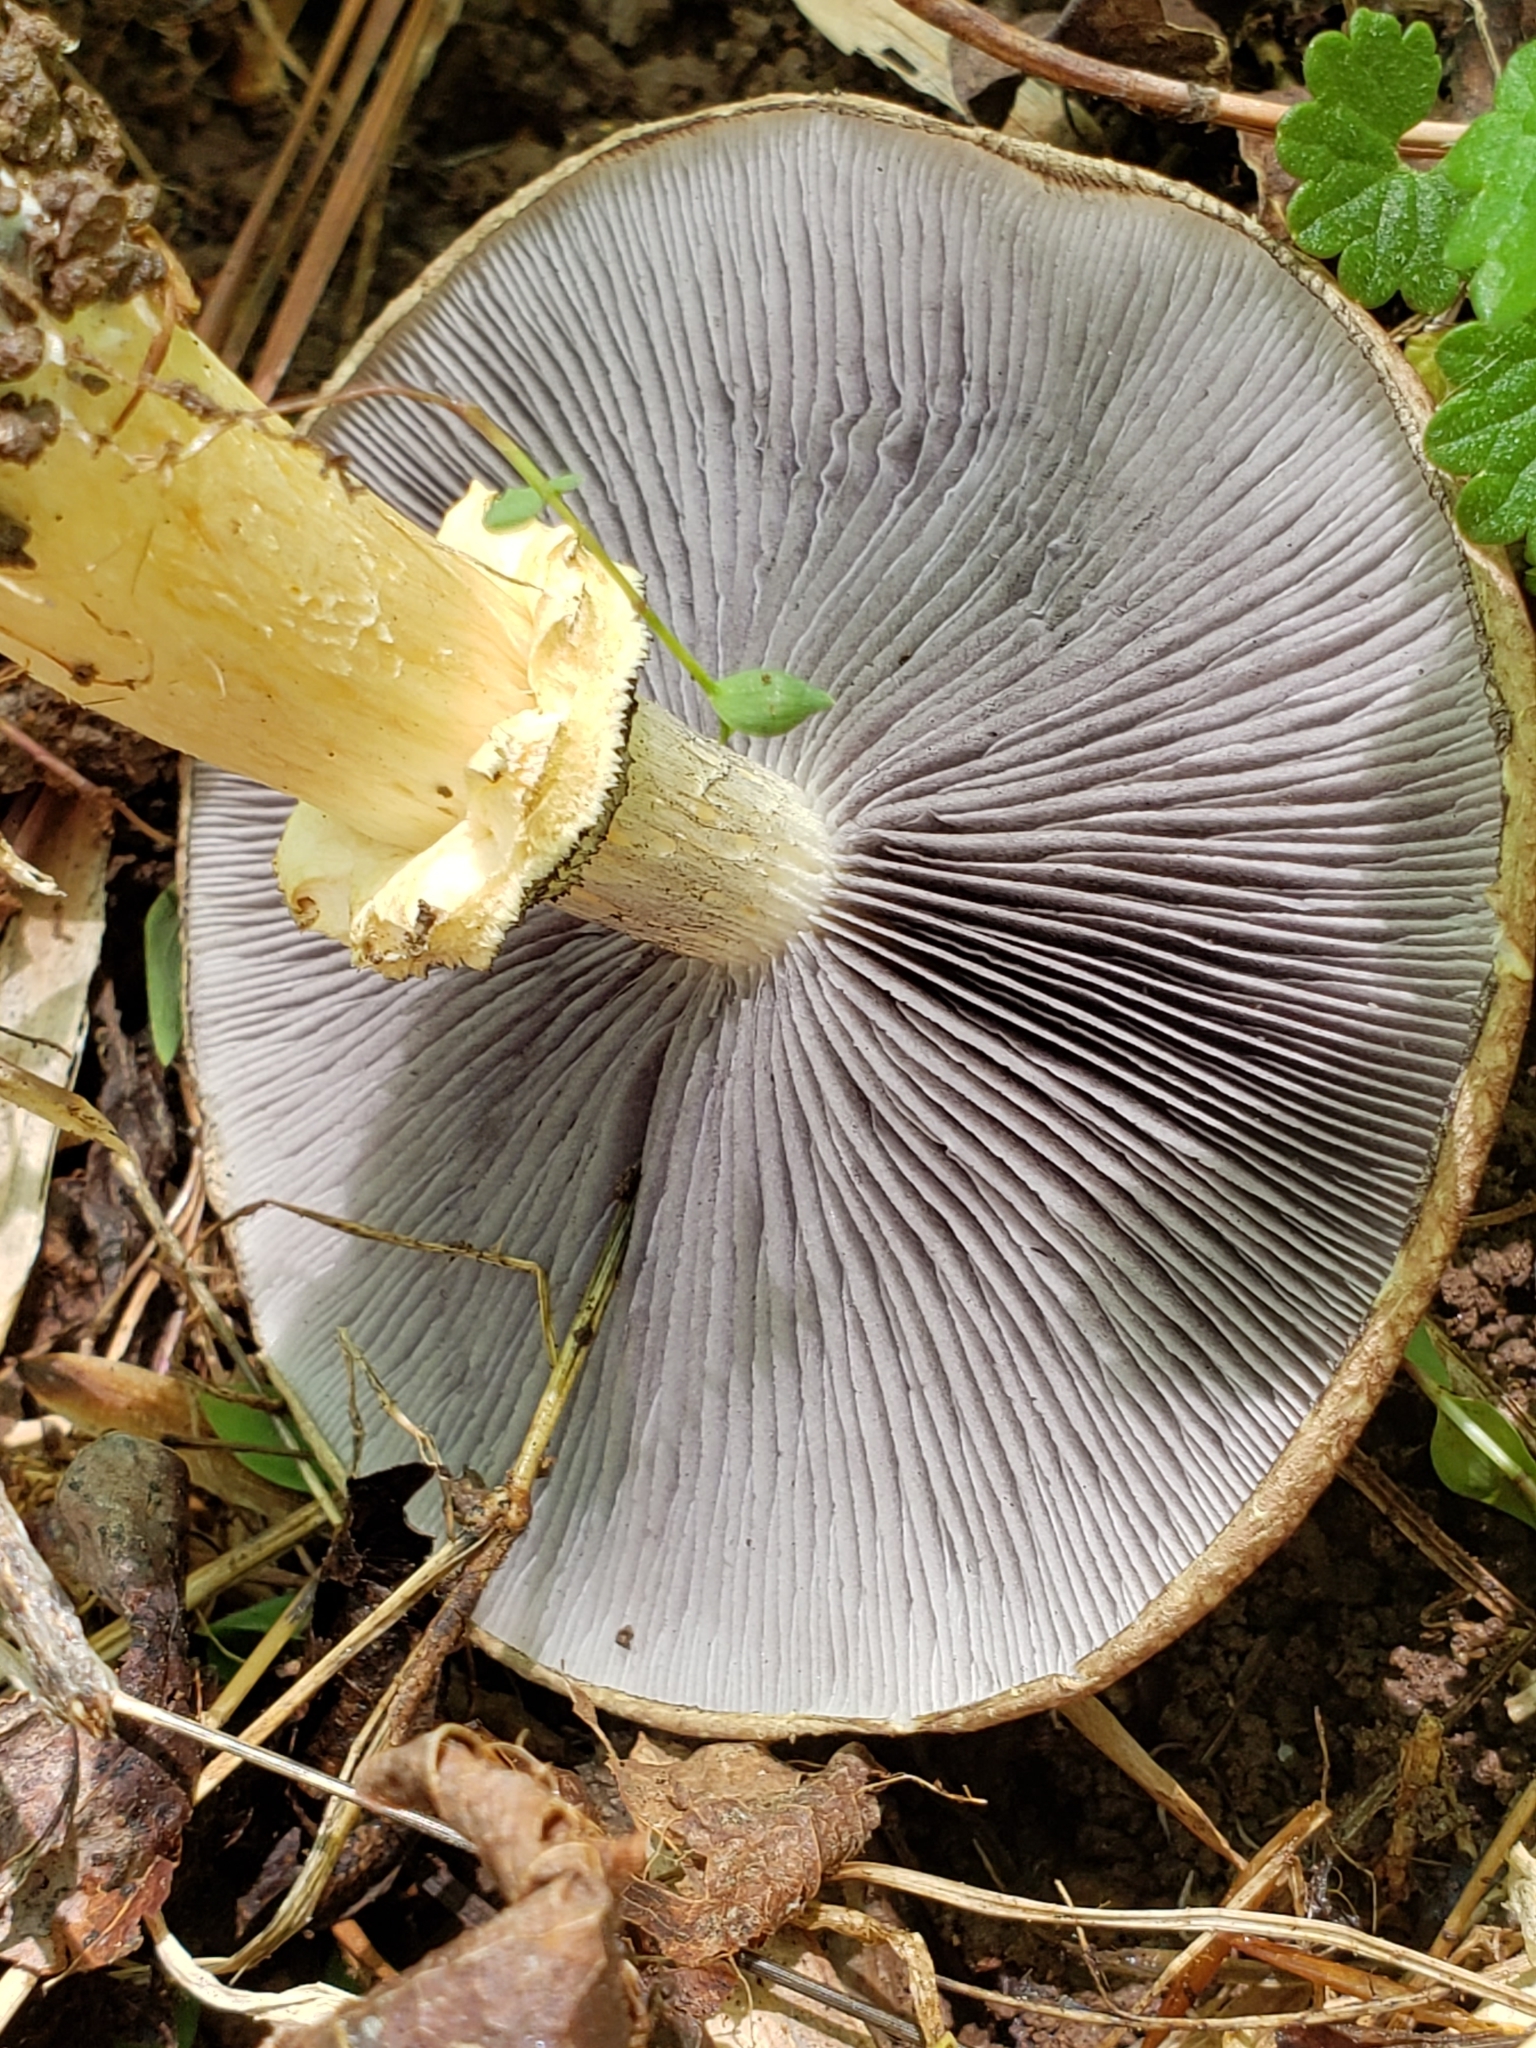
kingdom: Fungi
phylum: Basidiomycota
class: Agaricomycetes
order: Agaricales
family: Strophariaceae
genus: Stropharia
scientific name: Stropharia rugosoannulata
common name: Wine roundhead
